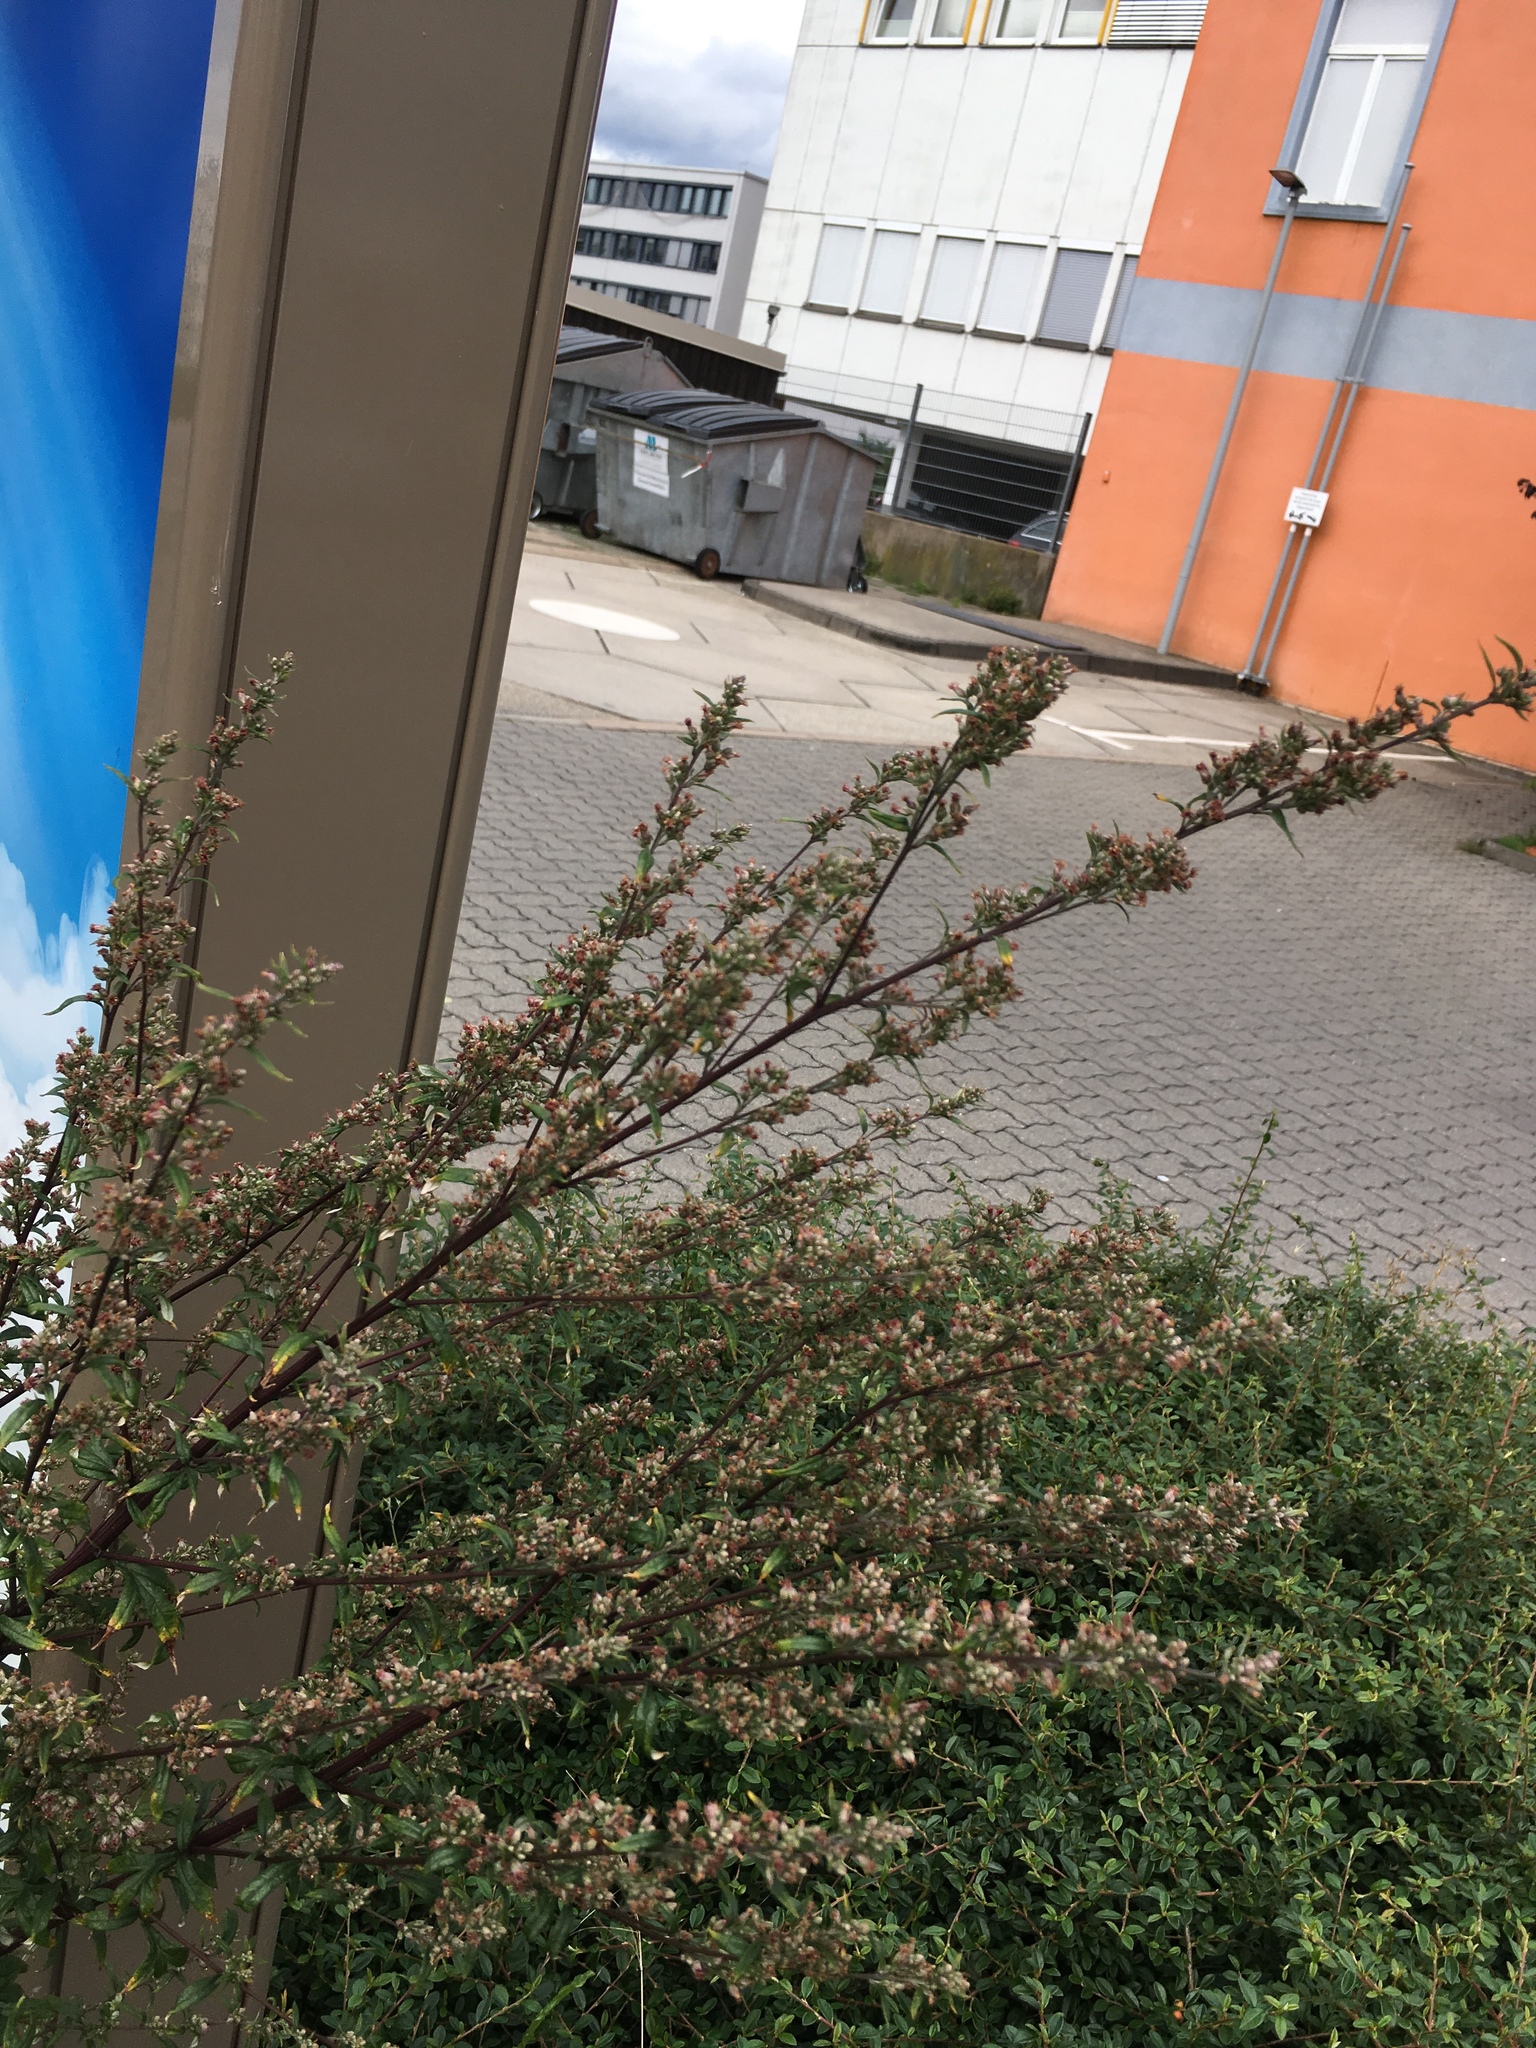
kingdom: Plantae
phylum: Tracheophyta
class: Magnoliopsida
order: Asterales
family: Asteraceae
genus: Artemisia
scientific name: Artemisia vulgaris
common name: Mugwort
